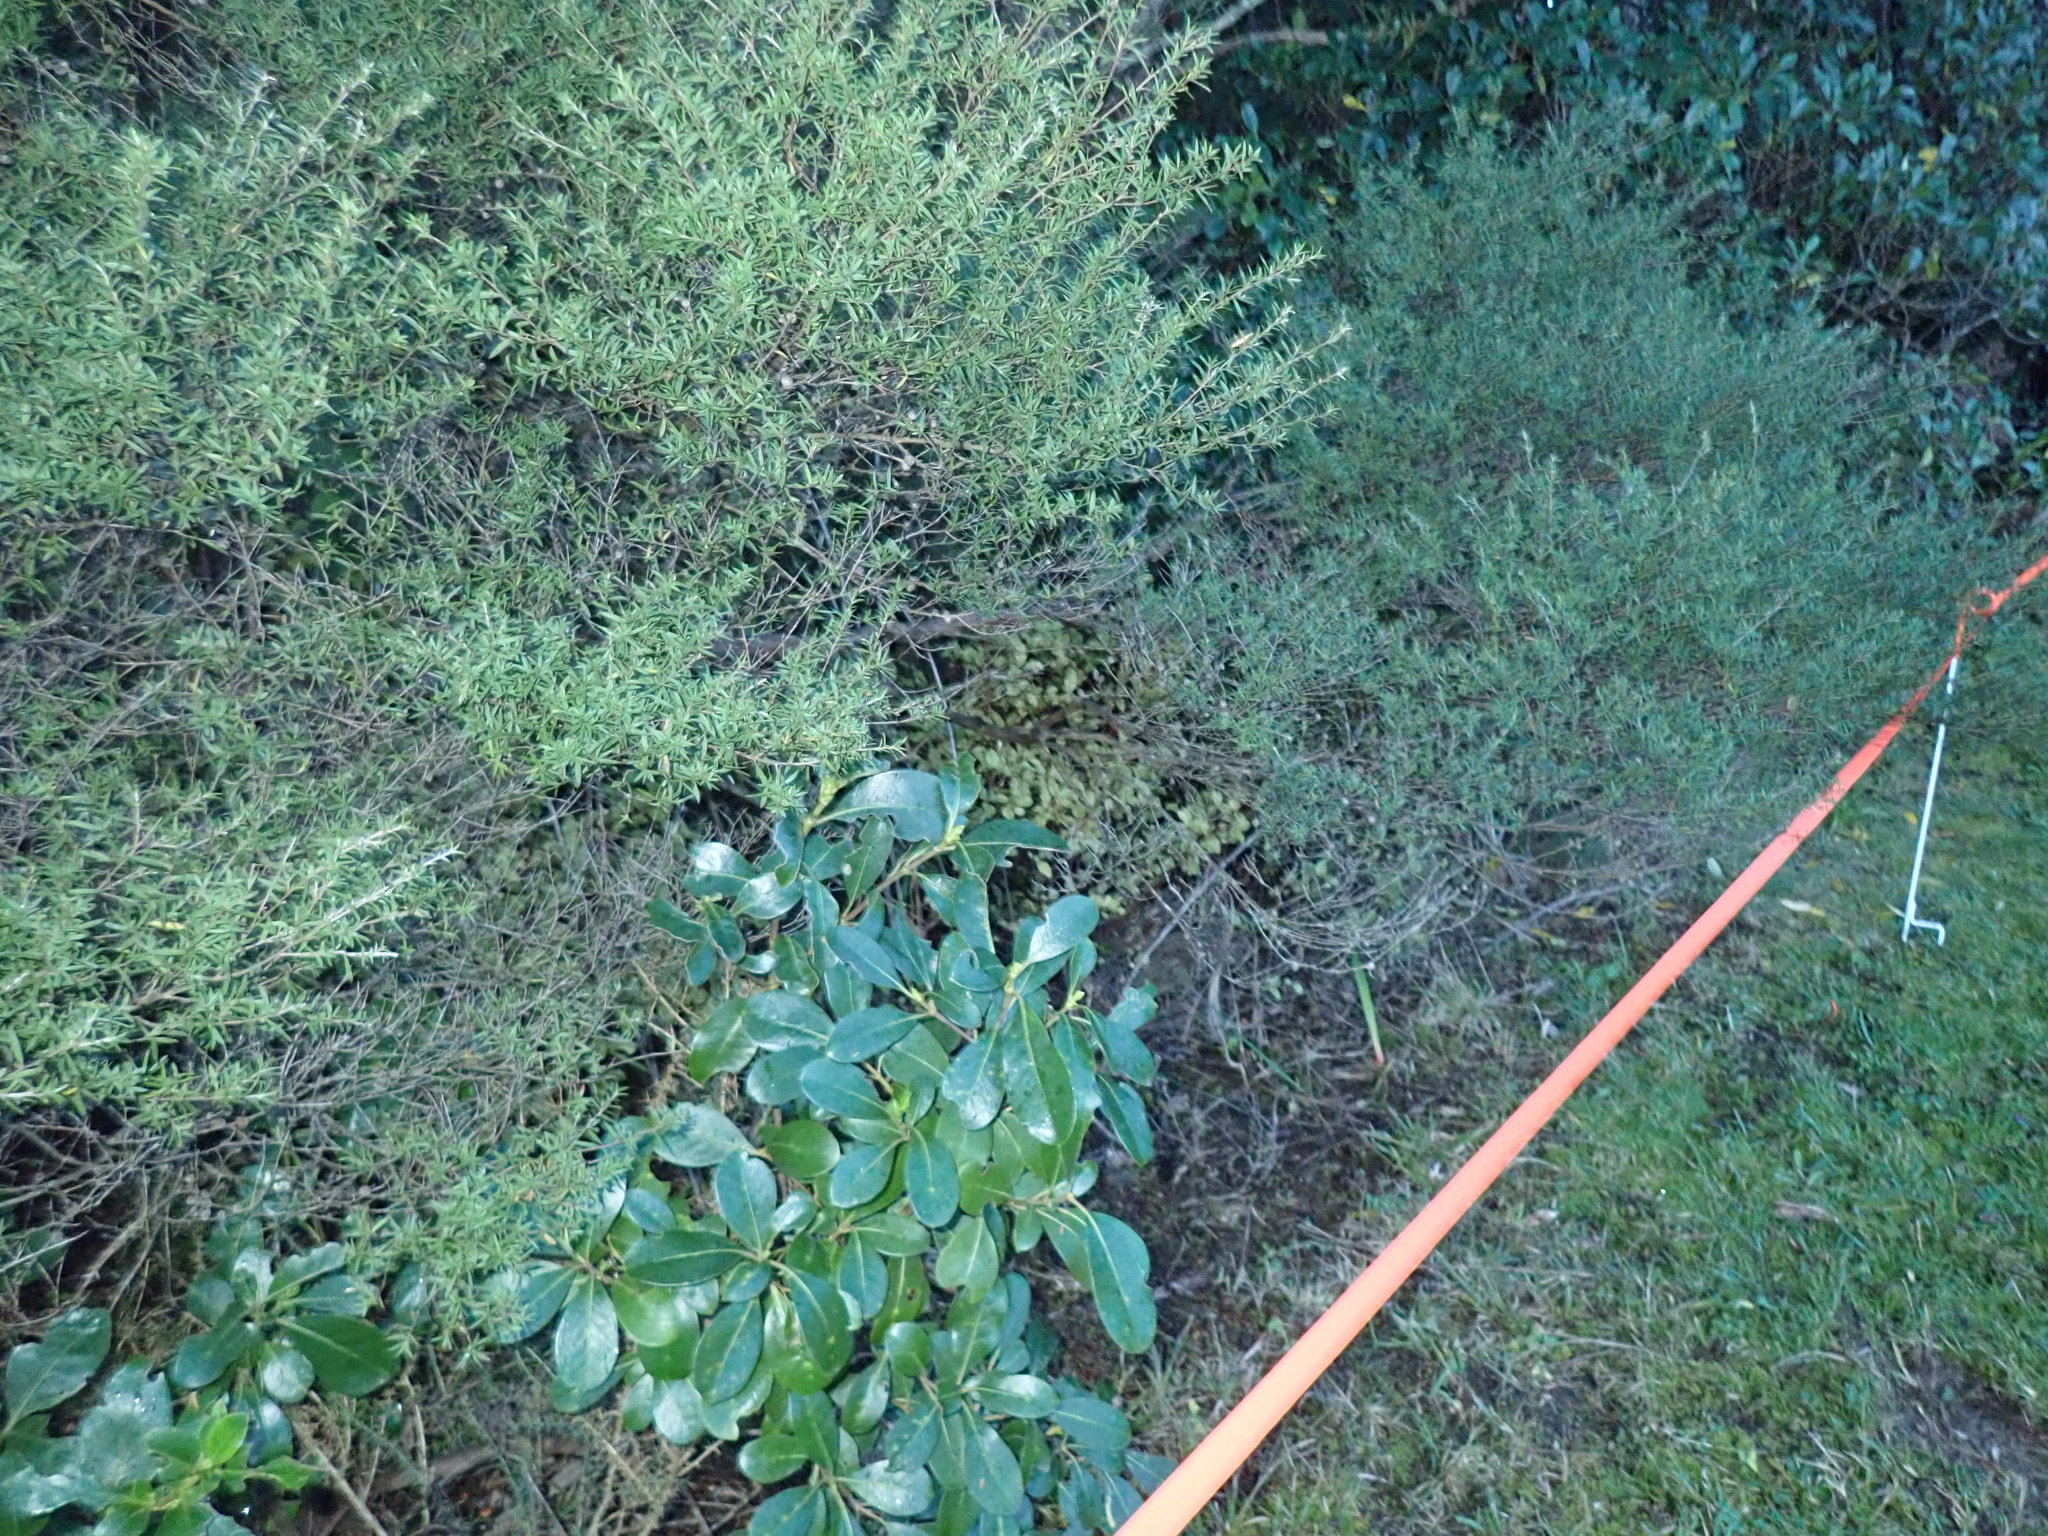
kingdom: Plantae
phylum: Tracheophyta
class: Magnoliopsida
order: Gentianales
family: Rubiaceae
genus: Coprosma
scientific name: Coprosma lucida
